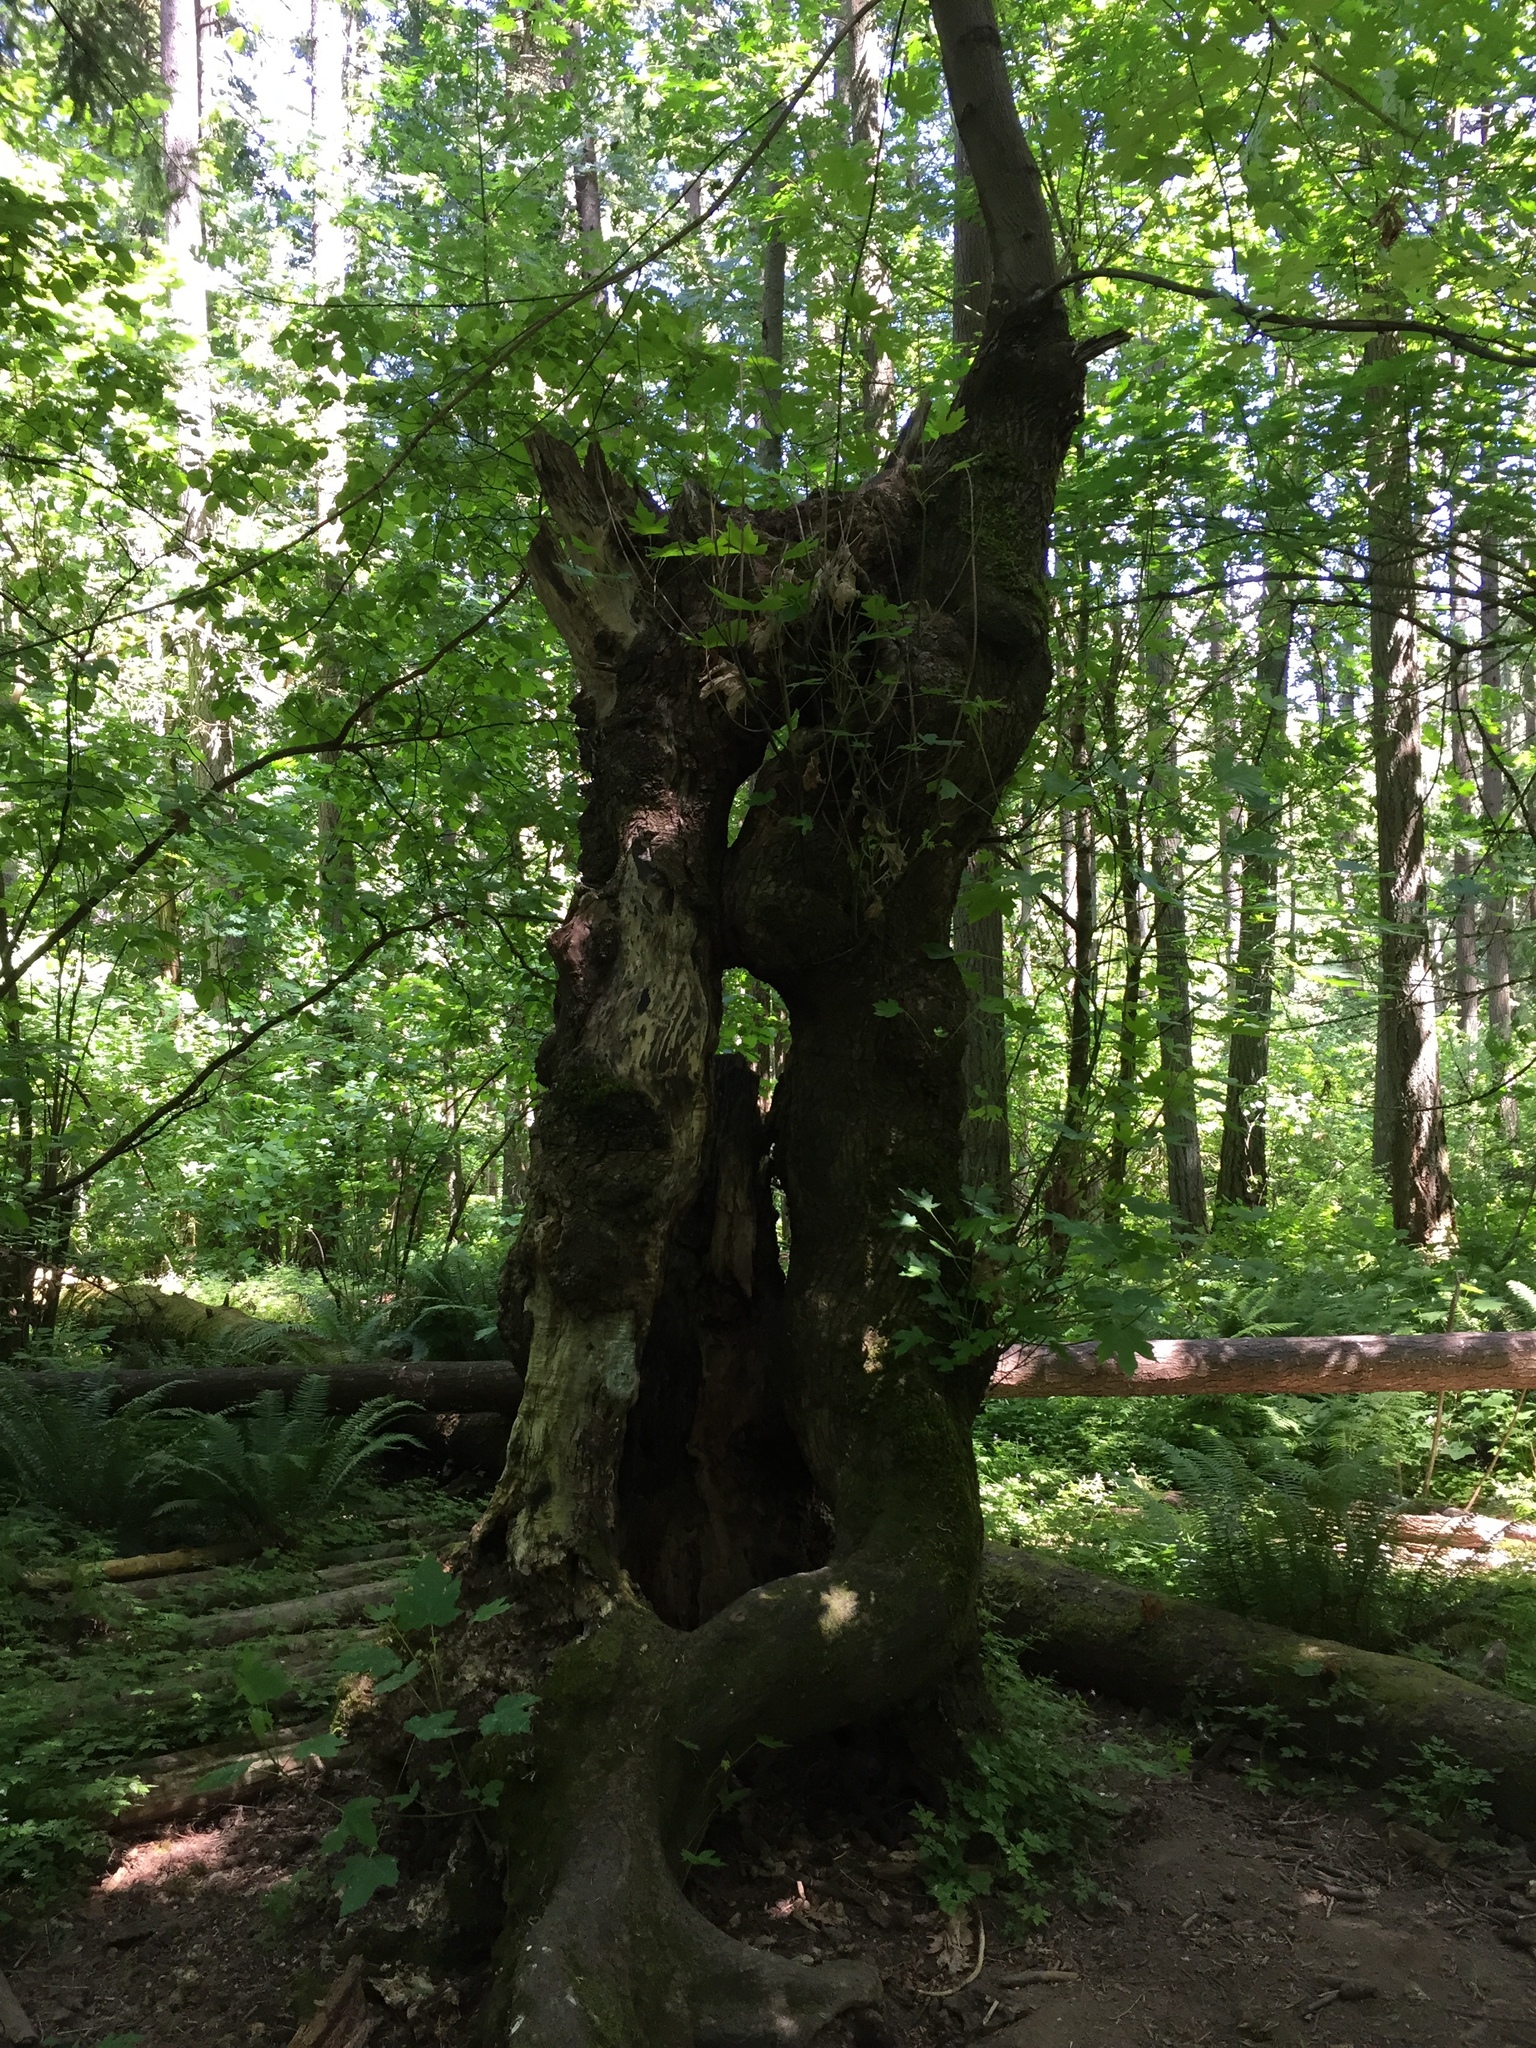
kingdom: Plantae
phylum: Tracheophyta
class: Magnoliopsida
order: Sapindales
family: Sapindaceae
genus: Acer
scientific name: Acer macrophyllum
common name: Oregon maple
